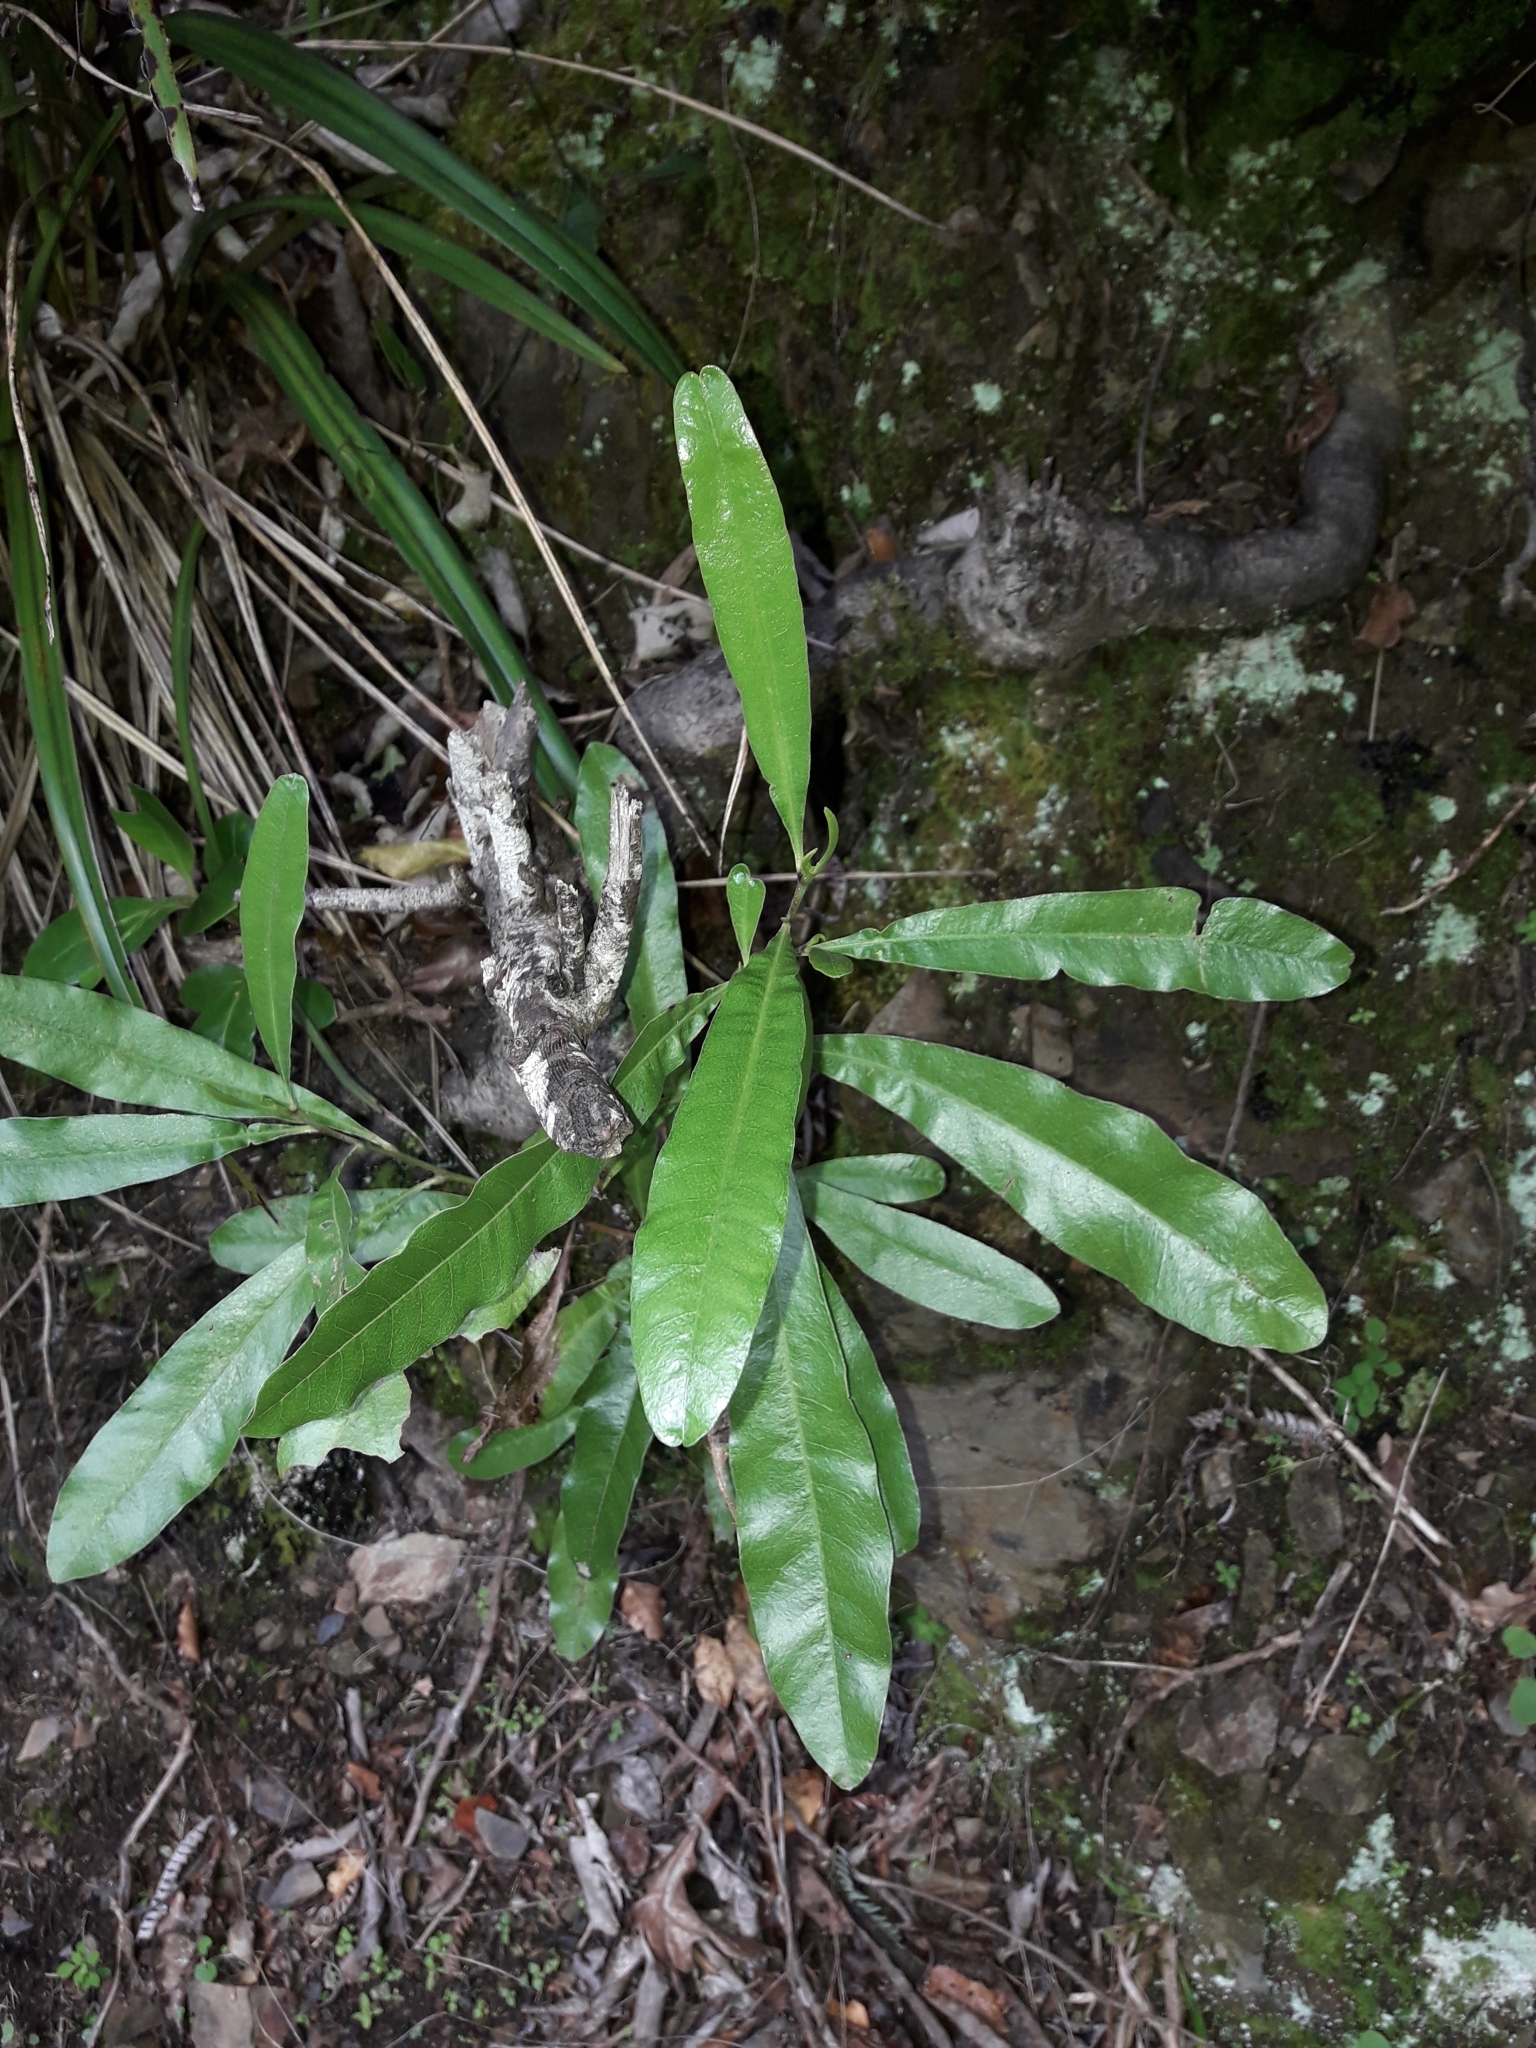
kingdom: Plantae
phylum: Tracheophyta
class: Magnoliopsida
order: Sapindales
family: Sapindaceae
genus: Dodonaea
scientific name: Dodonaea viscosa
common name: Hopbush
